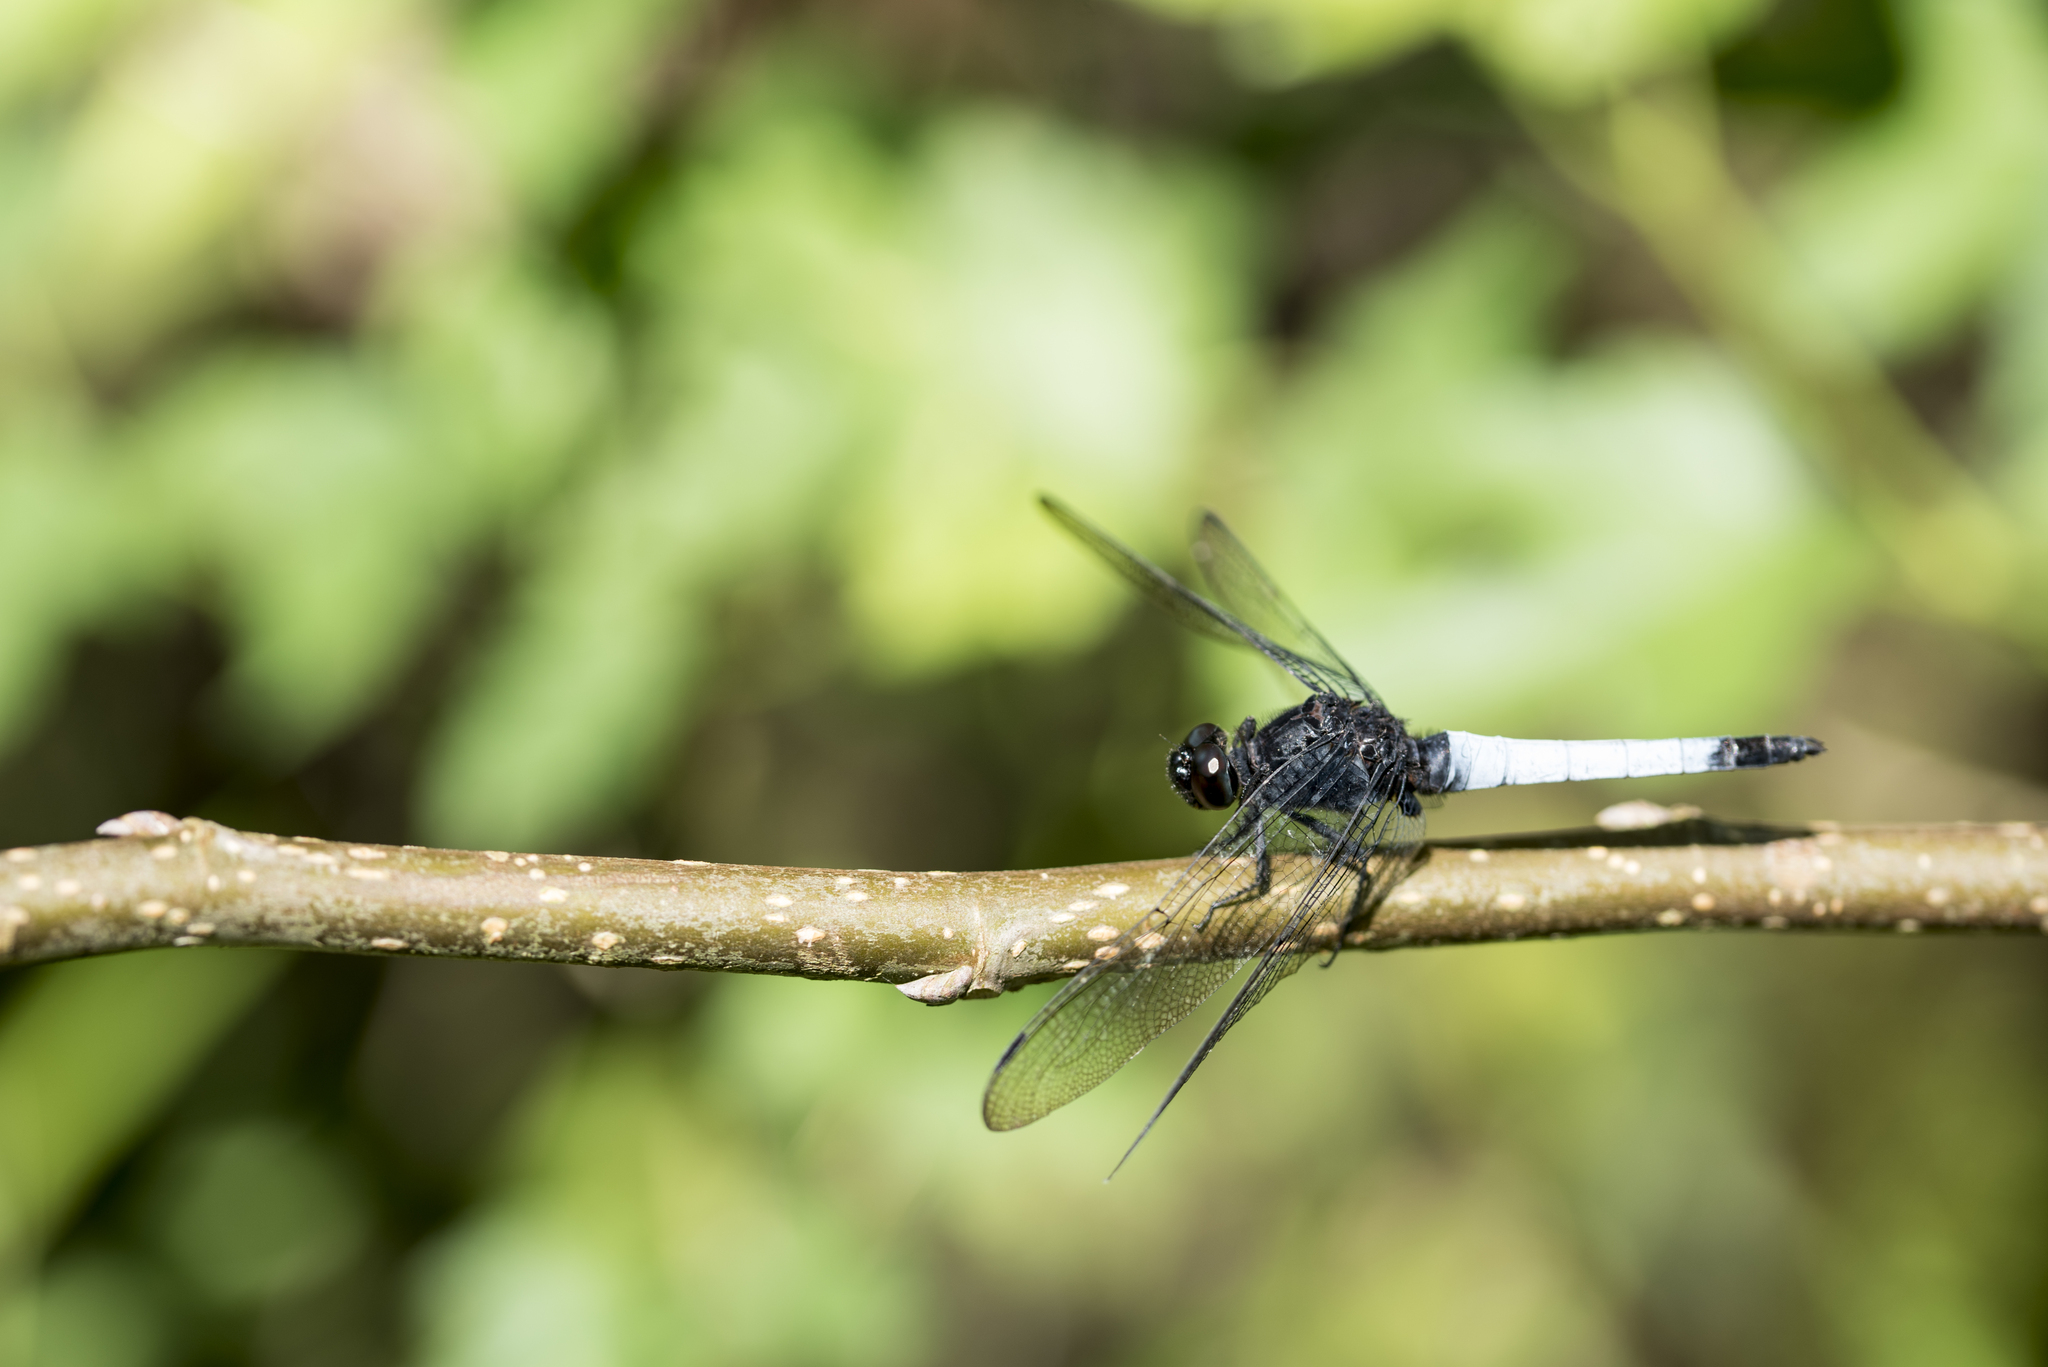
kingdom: Animalia
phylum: Arthropoda
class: Insecta
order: Odonata
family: Libellulidae
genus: Orthetrum
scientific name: Orthetrum triangulare
